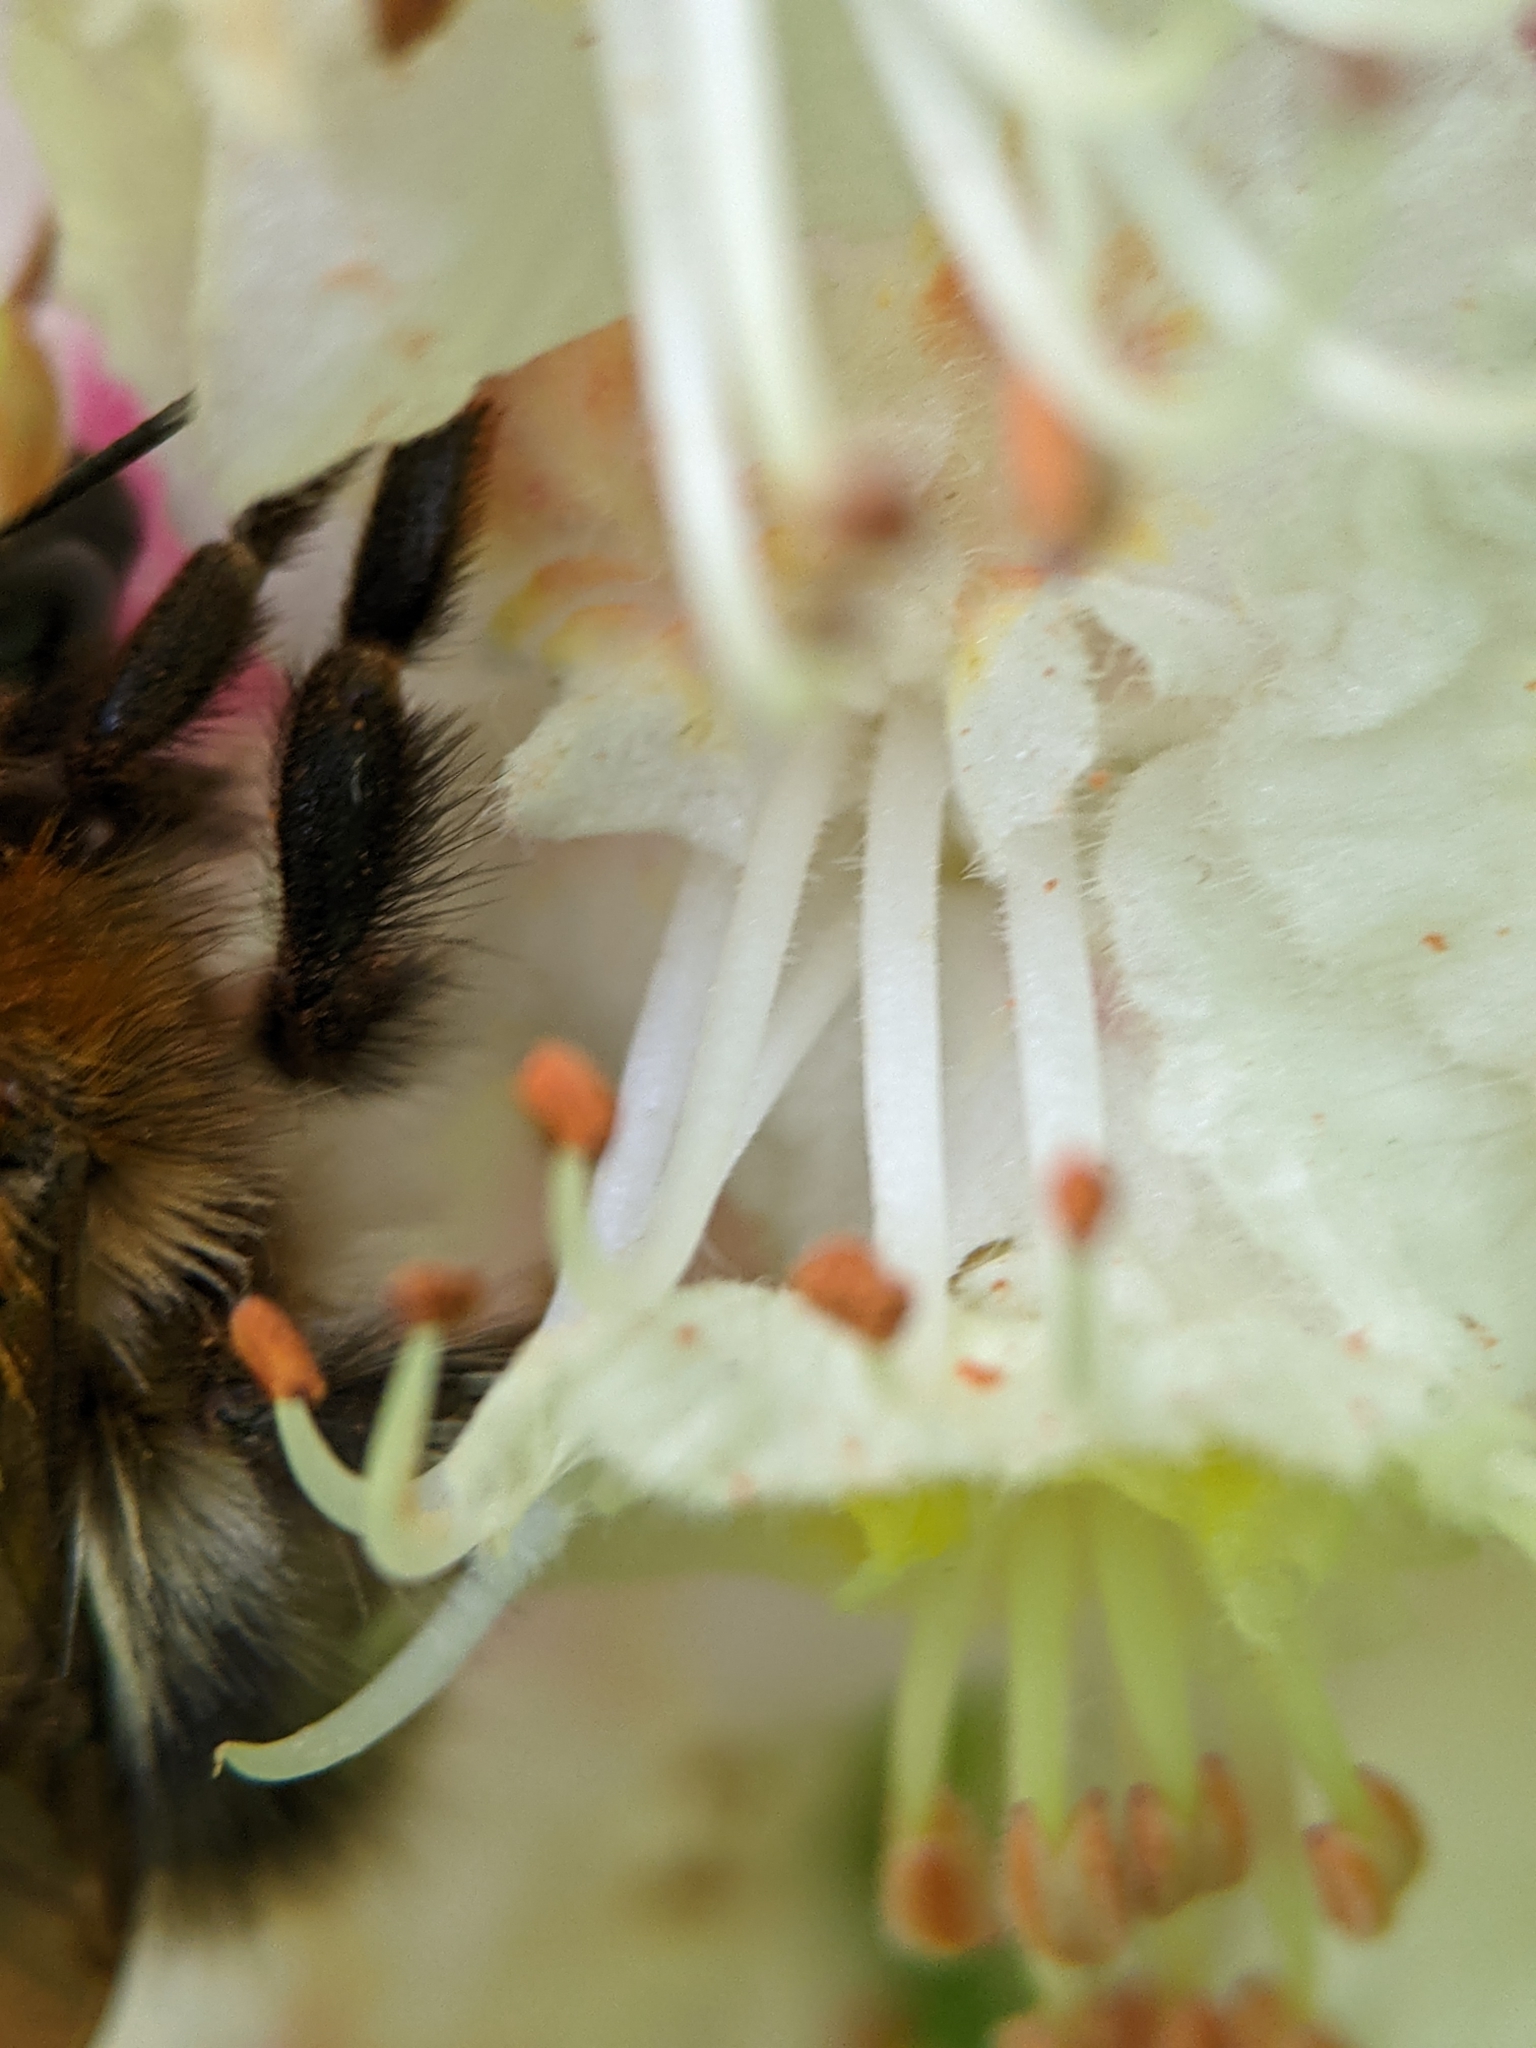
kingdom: Animalia
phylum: Arthropoda
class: Insecta
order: Hymenoptera
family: Apidae
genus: Bombus
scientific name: Bombus pascuorum
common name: Common carder bee
